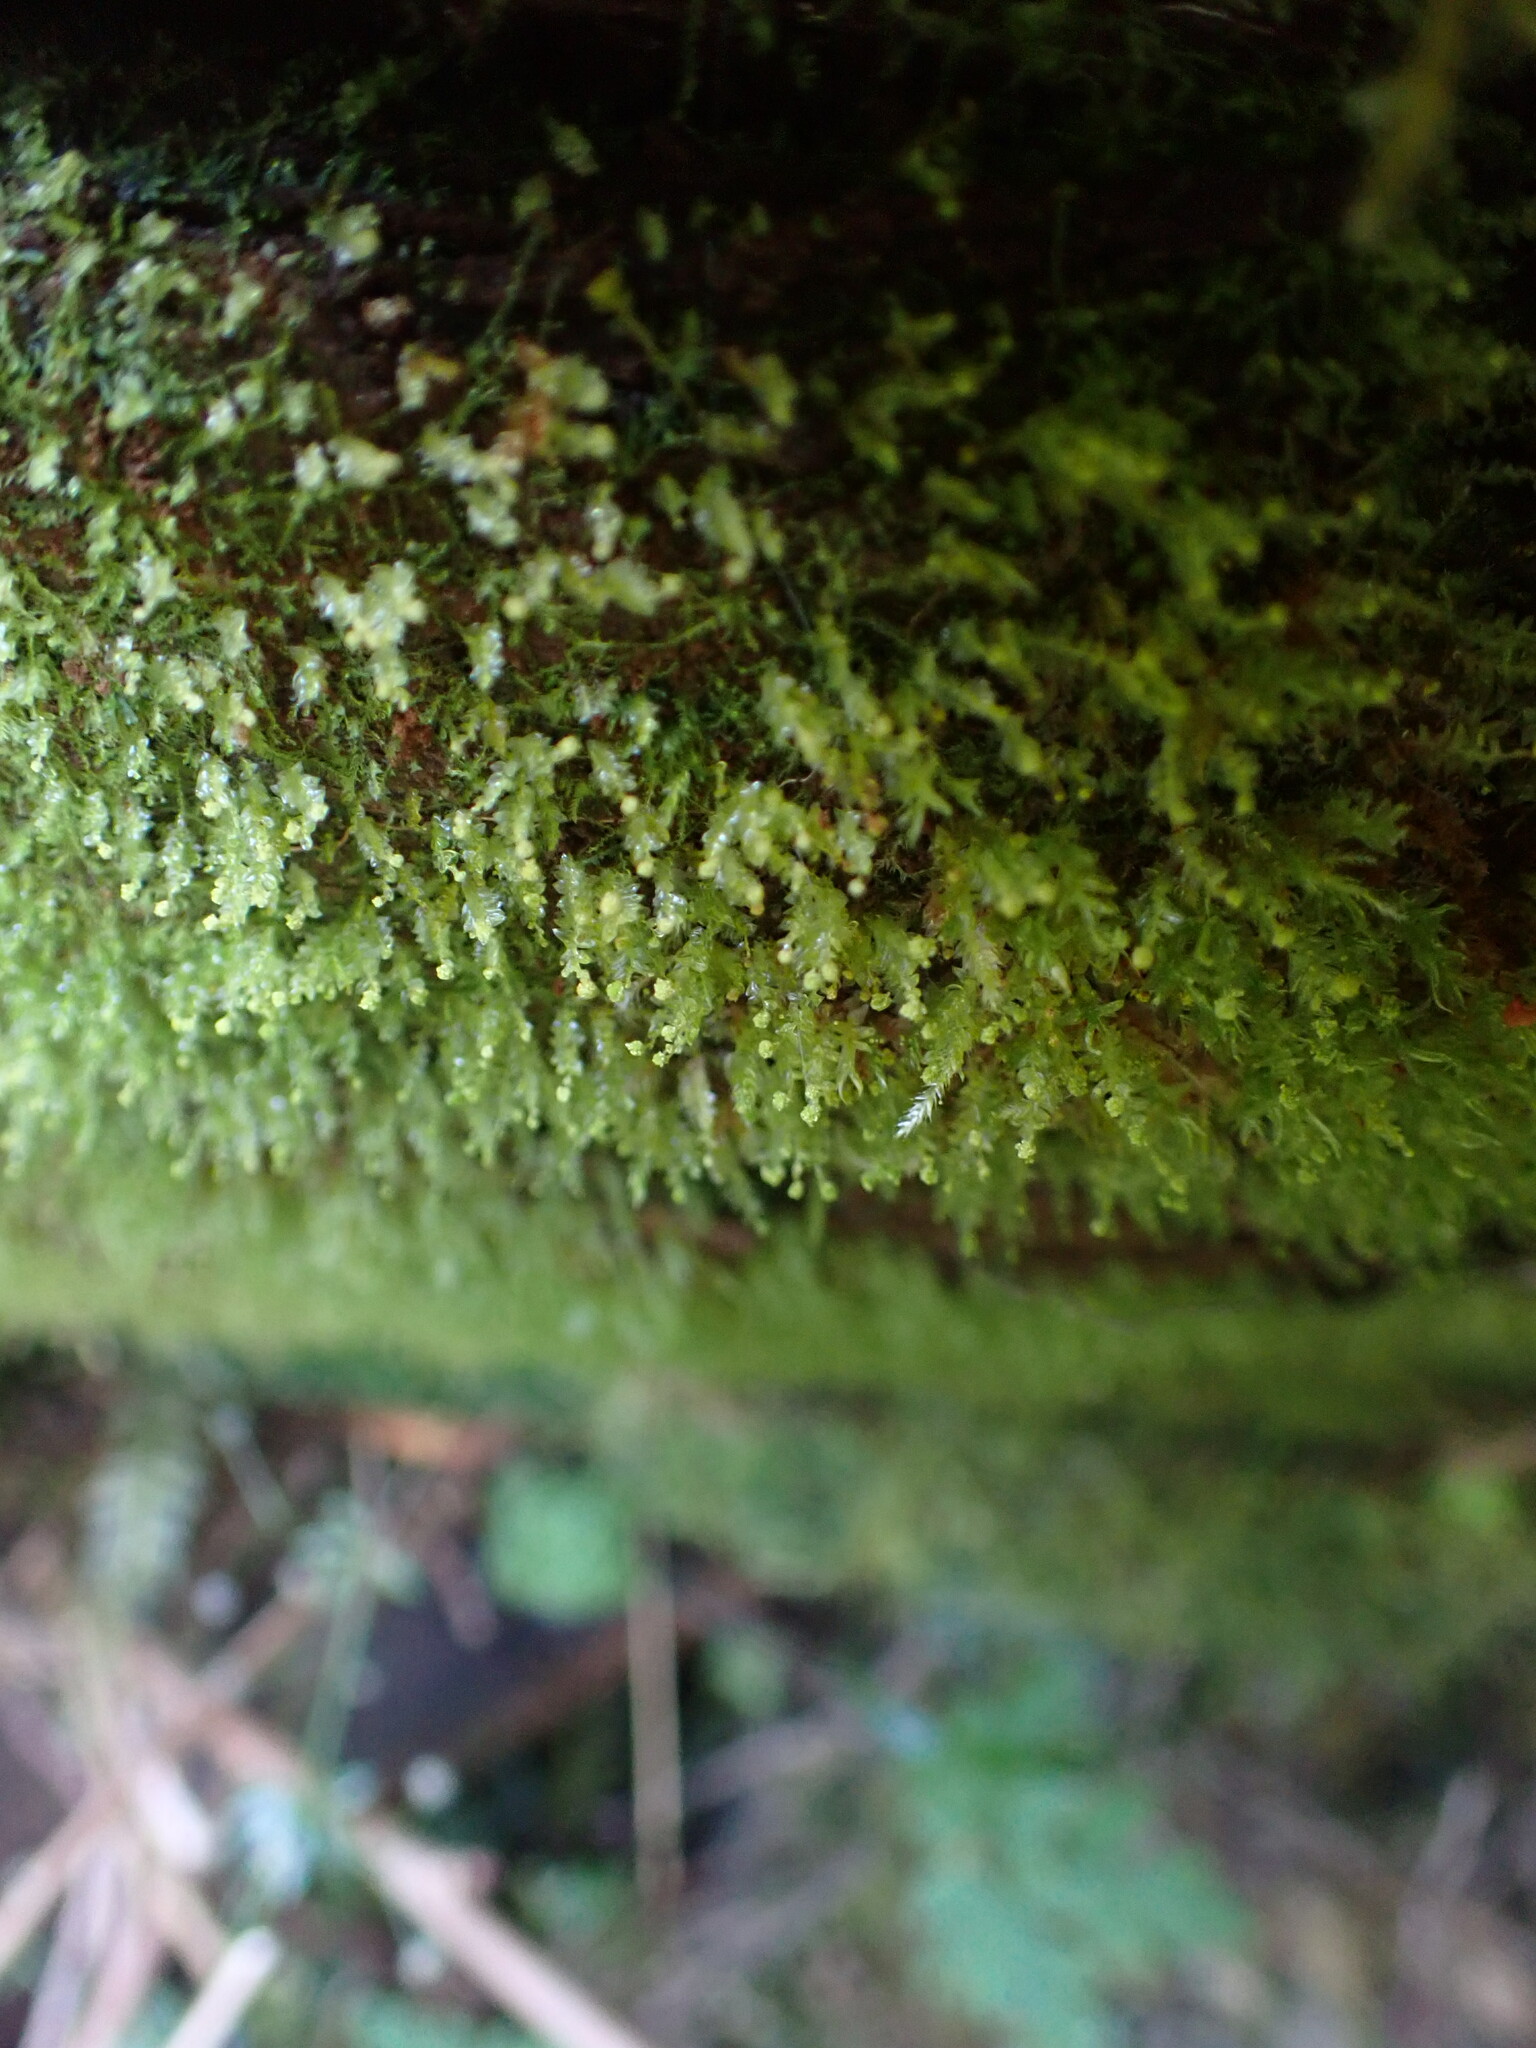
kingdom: Plantae
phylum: Bryophyta
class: Polytrichopsida
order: Tetraphidales
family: Tetraphidaceae
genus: Tetraphis
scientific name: Tetraphis pellucida
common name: Common four-toothed moss
